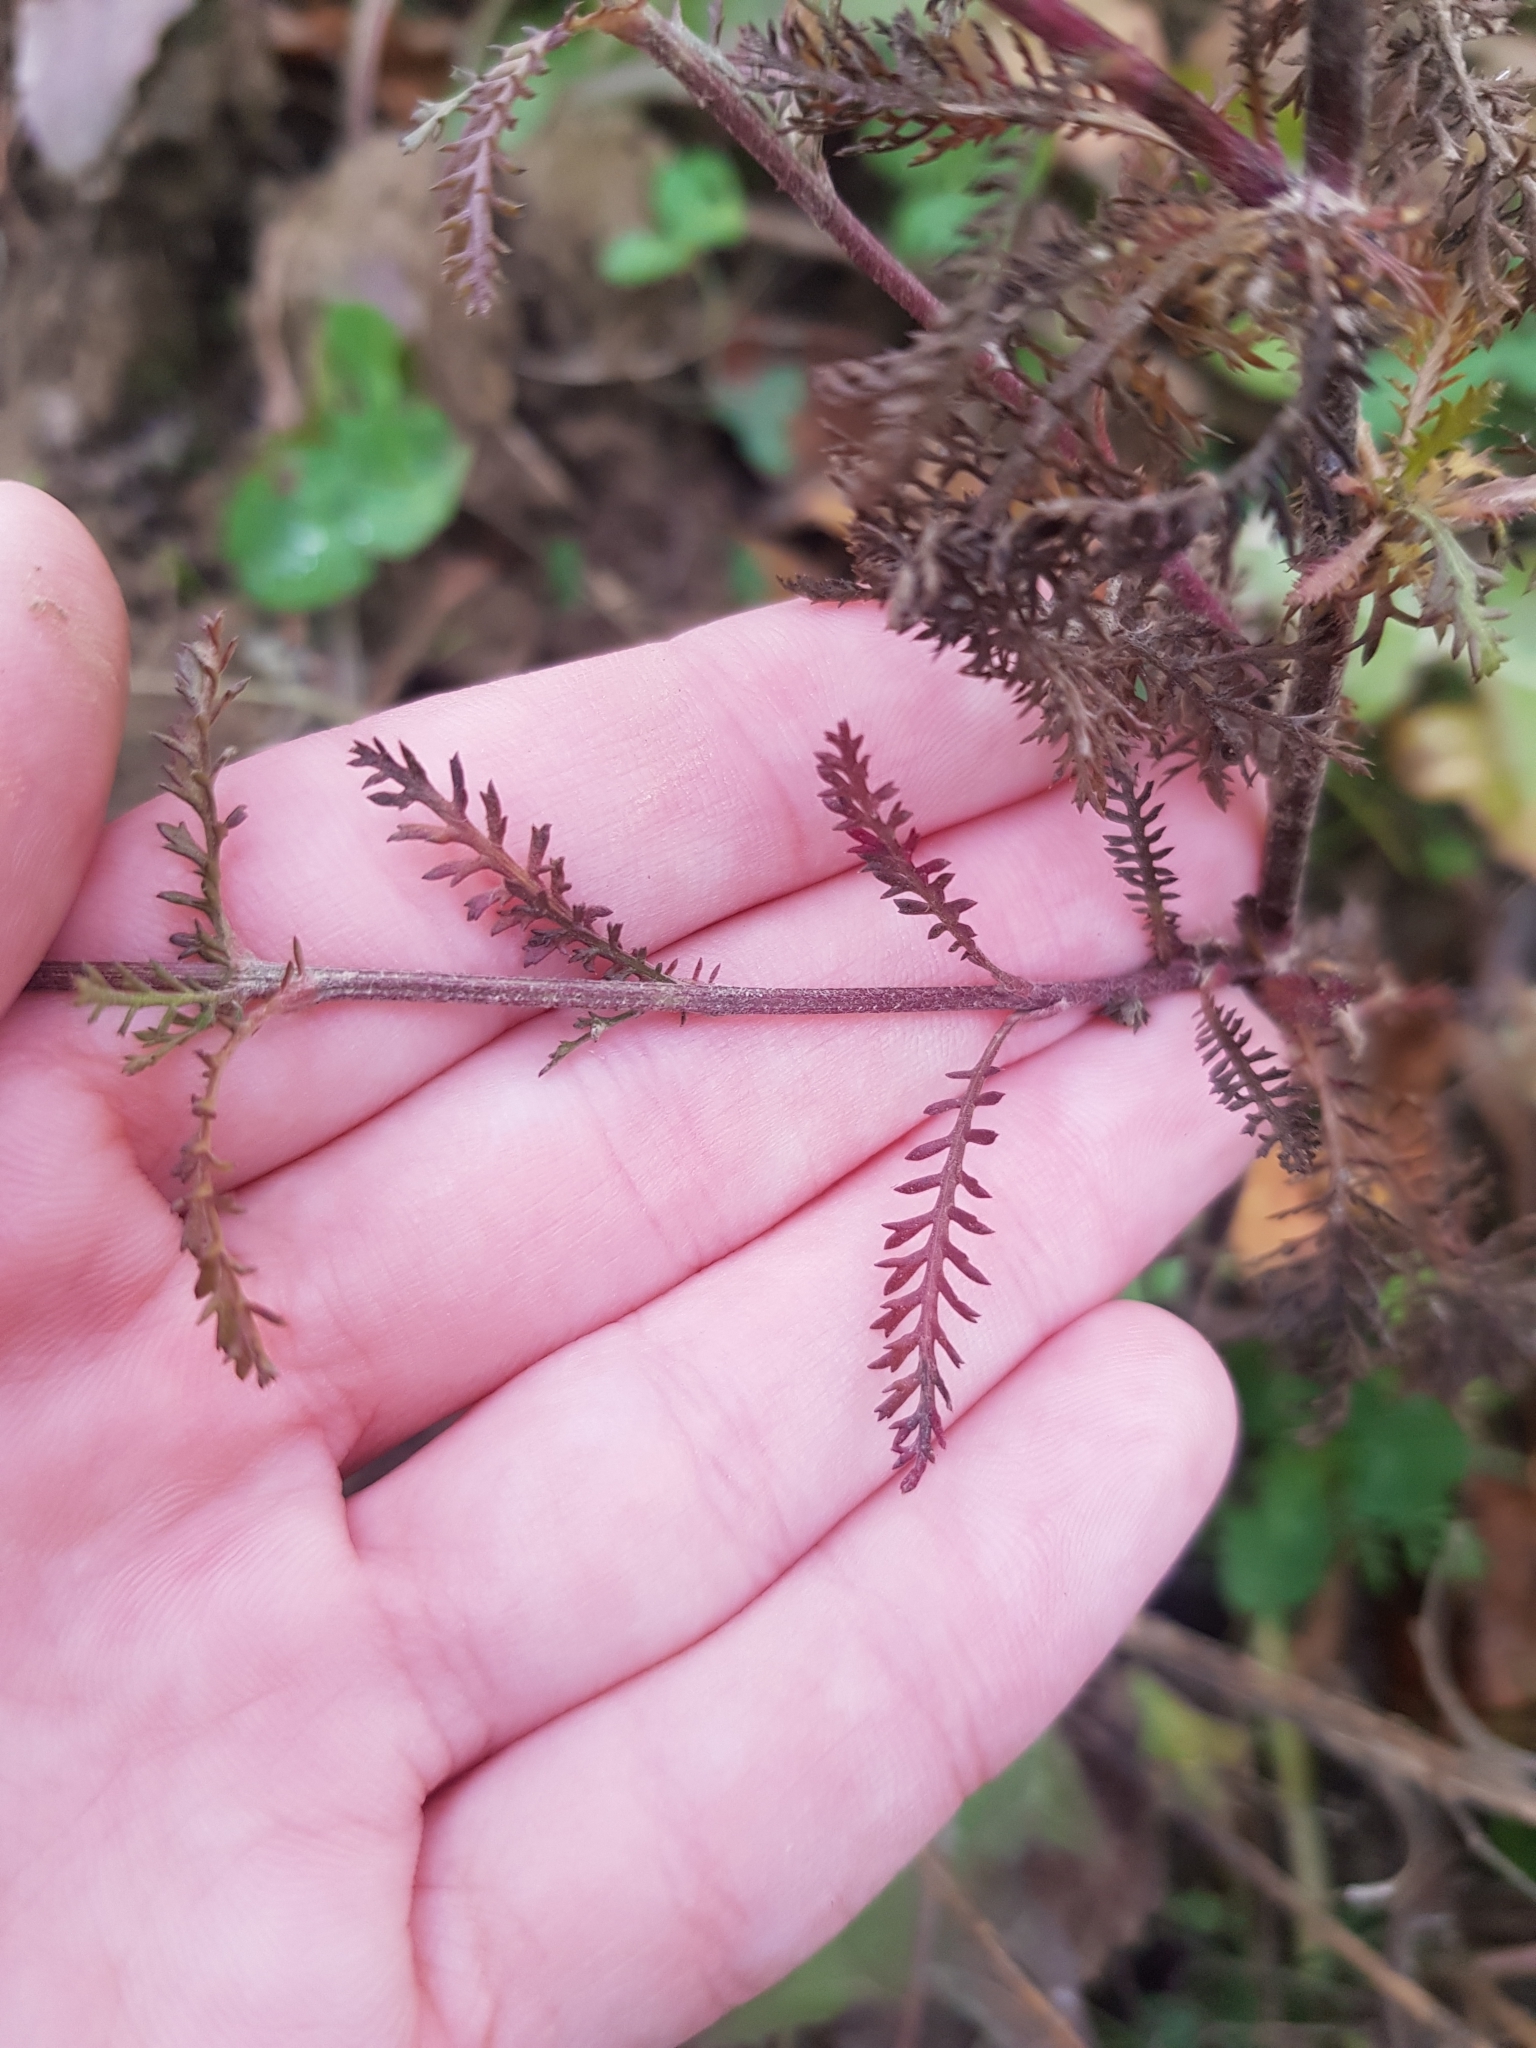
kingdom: Plantae
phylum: Tracheophyta
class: Magnoliopsida
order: Asterales
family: Asteraceae
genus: Achillea
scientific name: Achillea millefolium
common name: Yarrow
